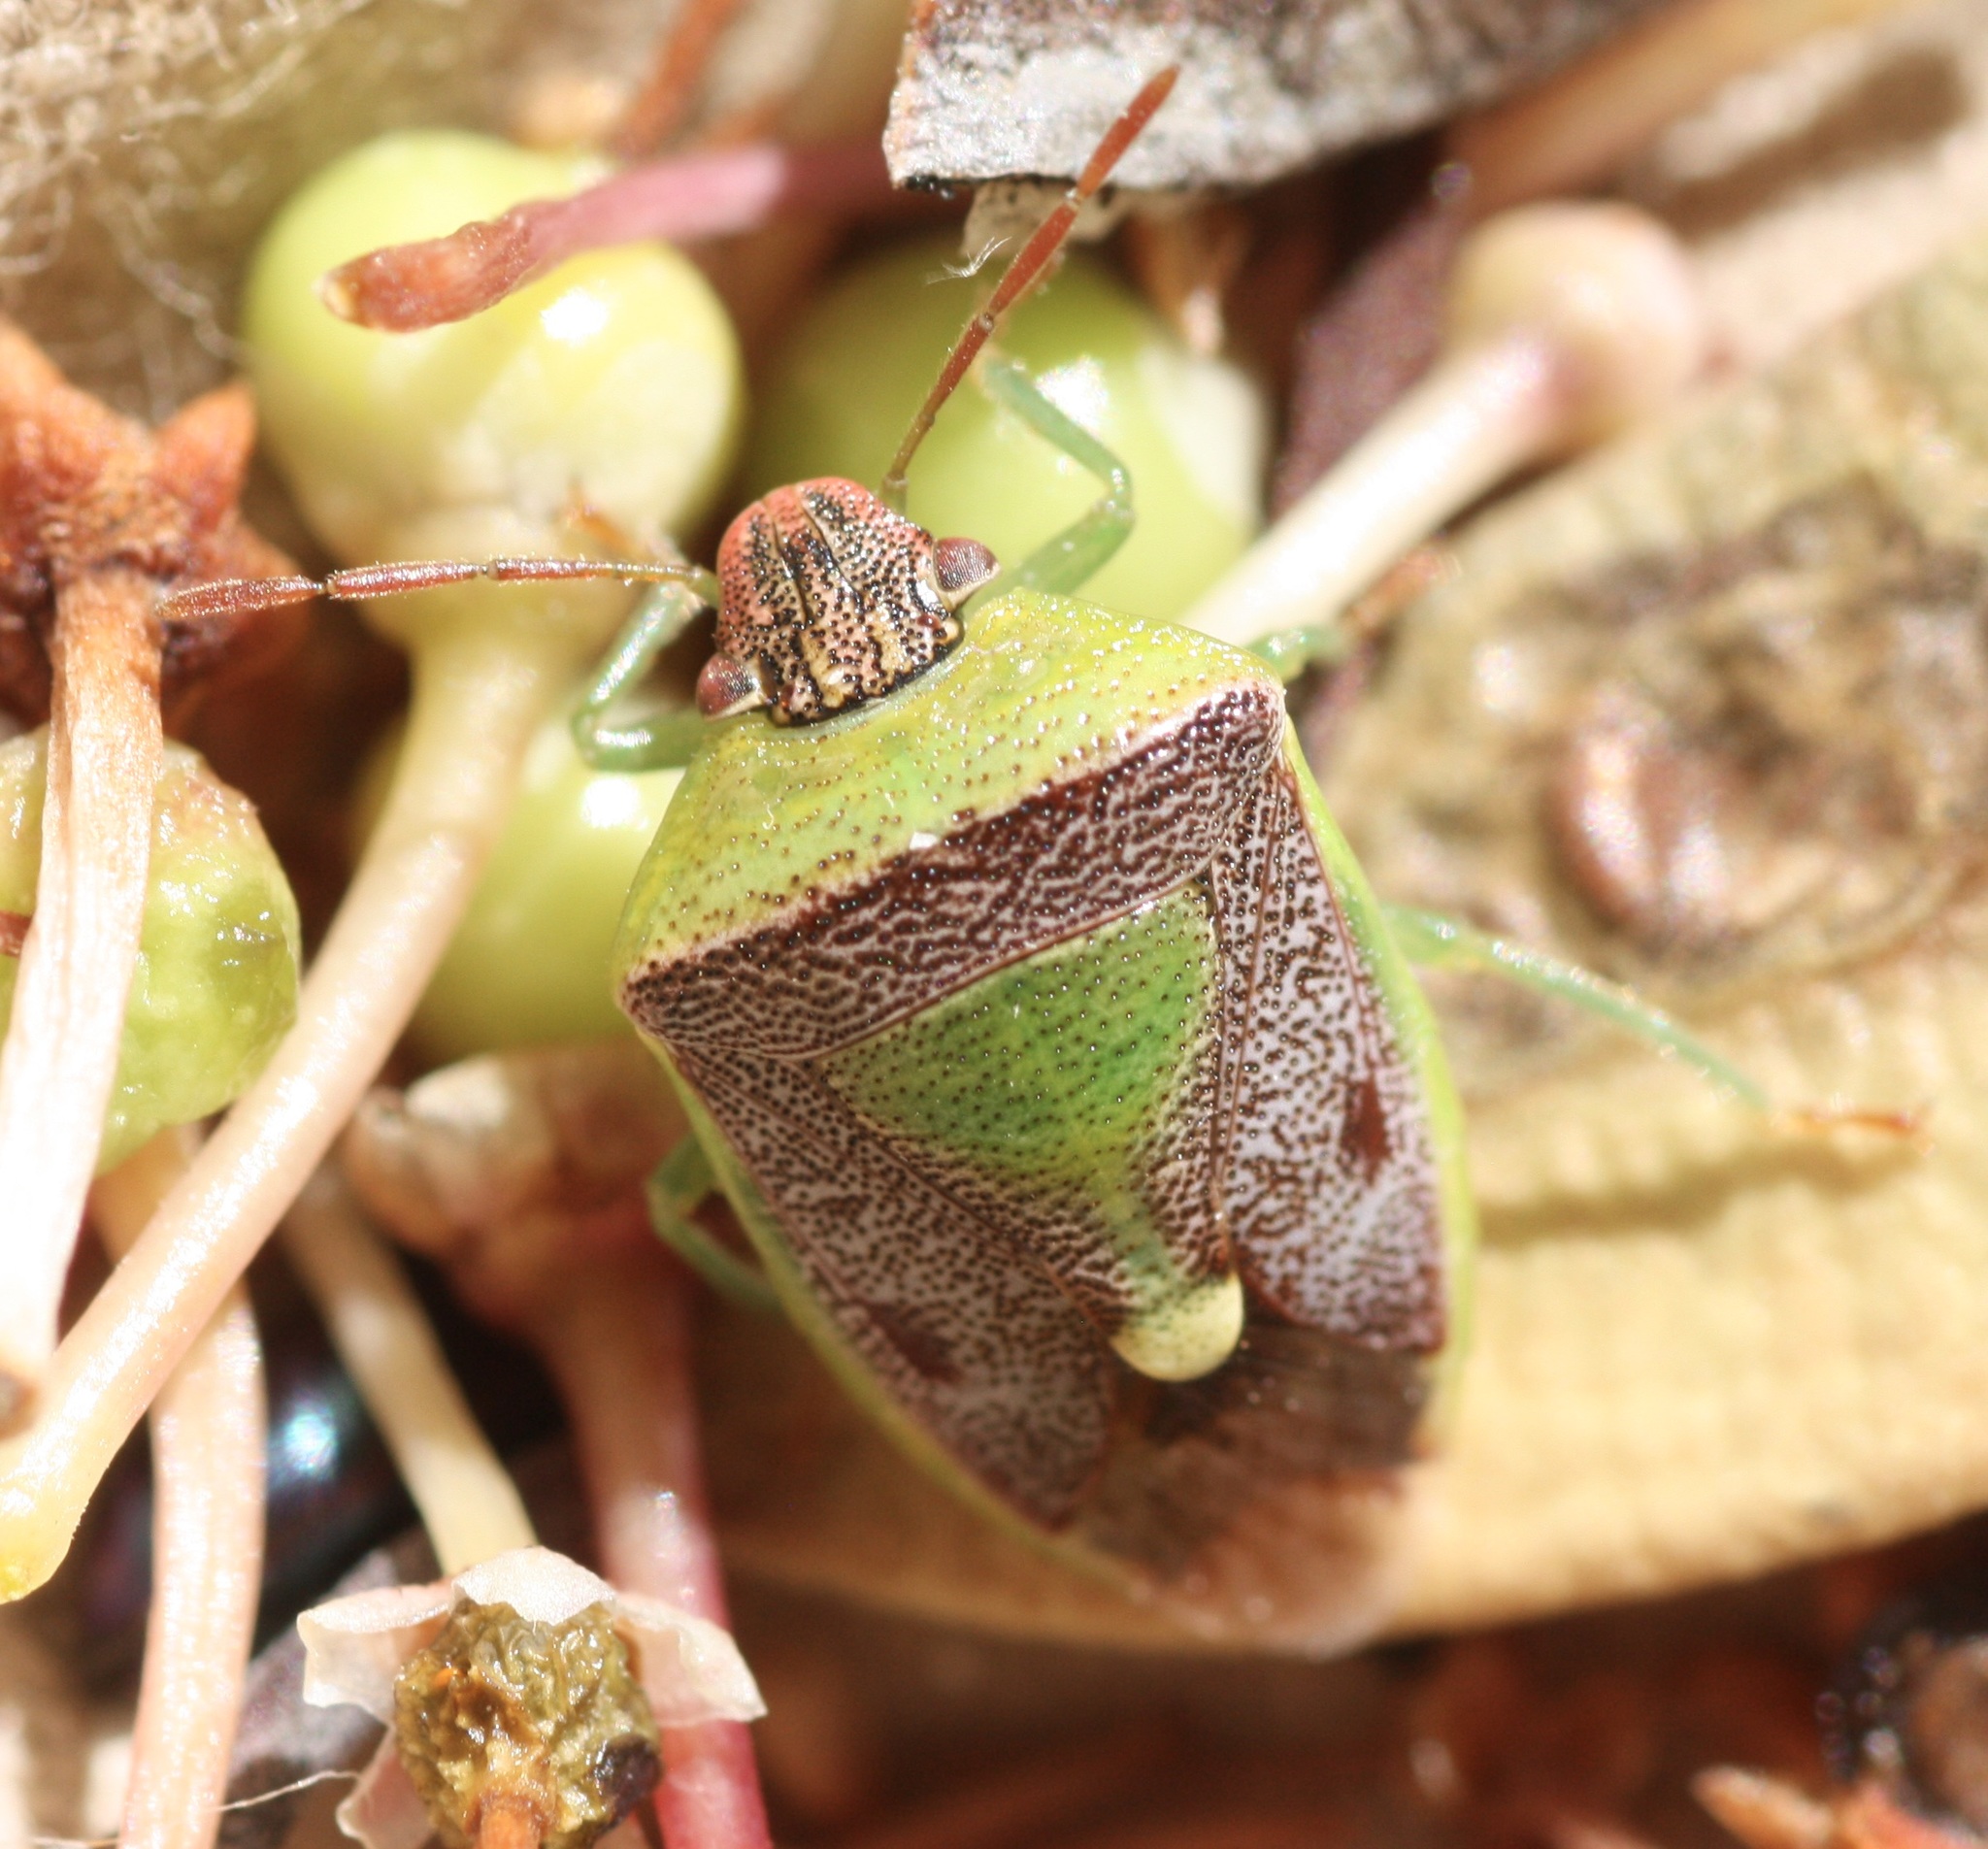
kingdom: Animalia
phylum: Arthropoda
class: Insecta
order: Hemiptera
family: Pentatomidae
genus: Banasa
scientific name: Banasa dimidiata
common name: Green burgundy stink bug
